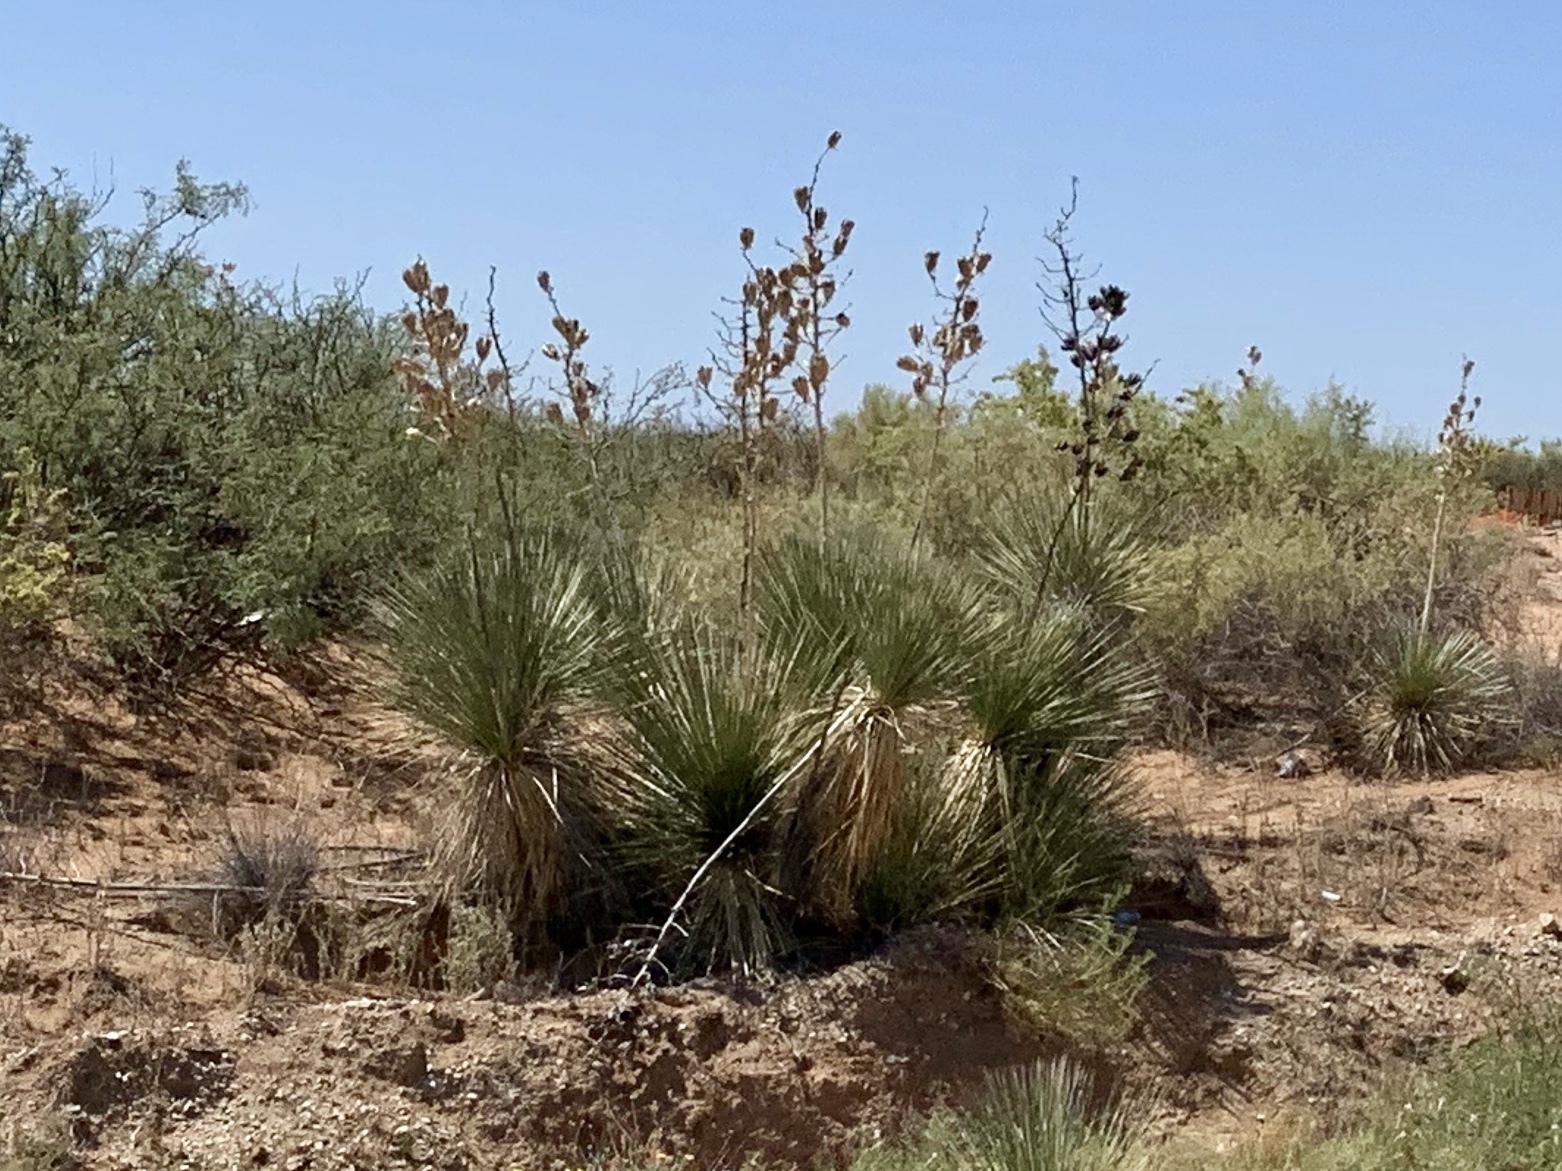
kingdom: Plantae
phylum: Tracheophyta
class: Liliopsida
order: Asparagales
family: Asparagaceae
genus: Yucca
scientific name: Yucca elata
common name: Palmella
